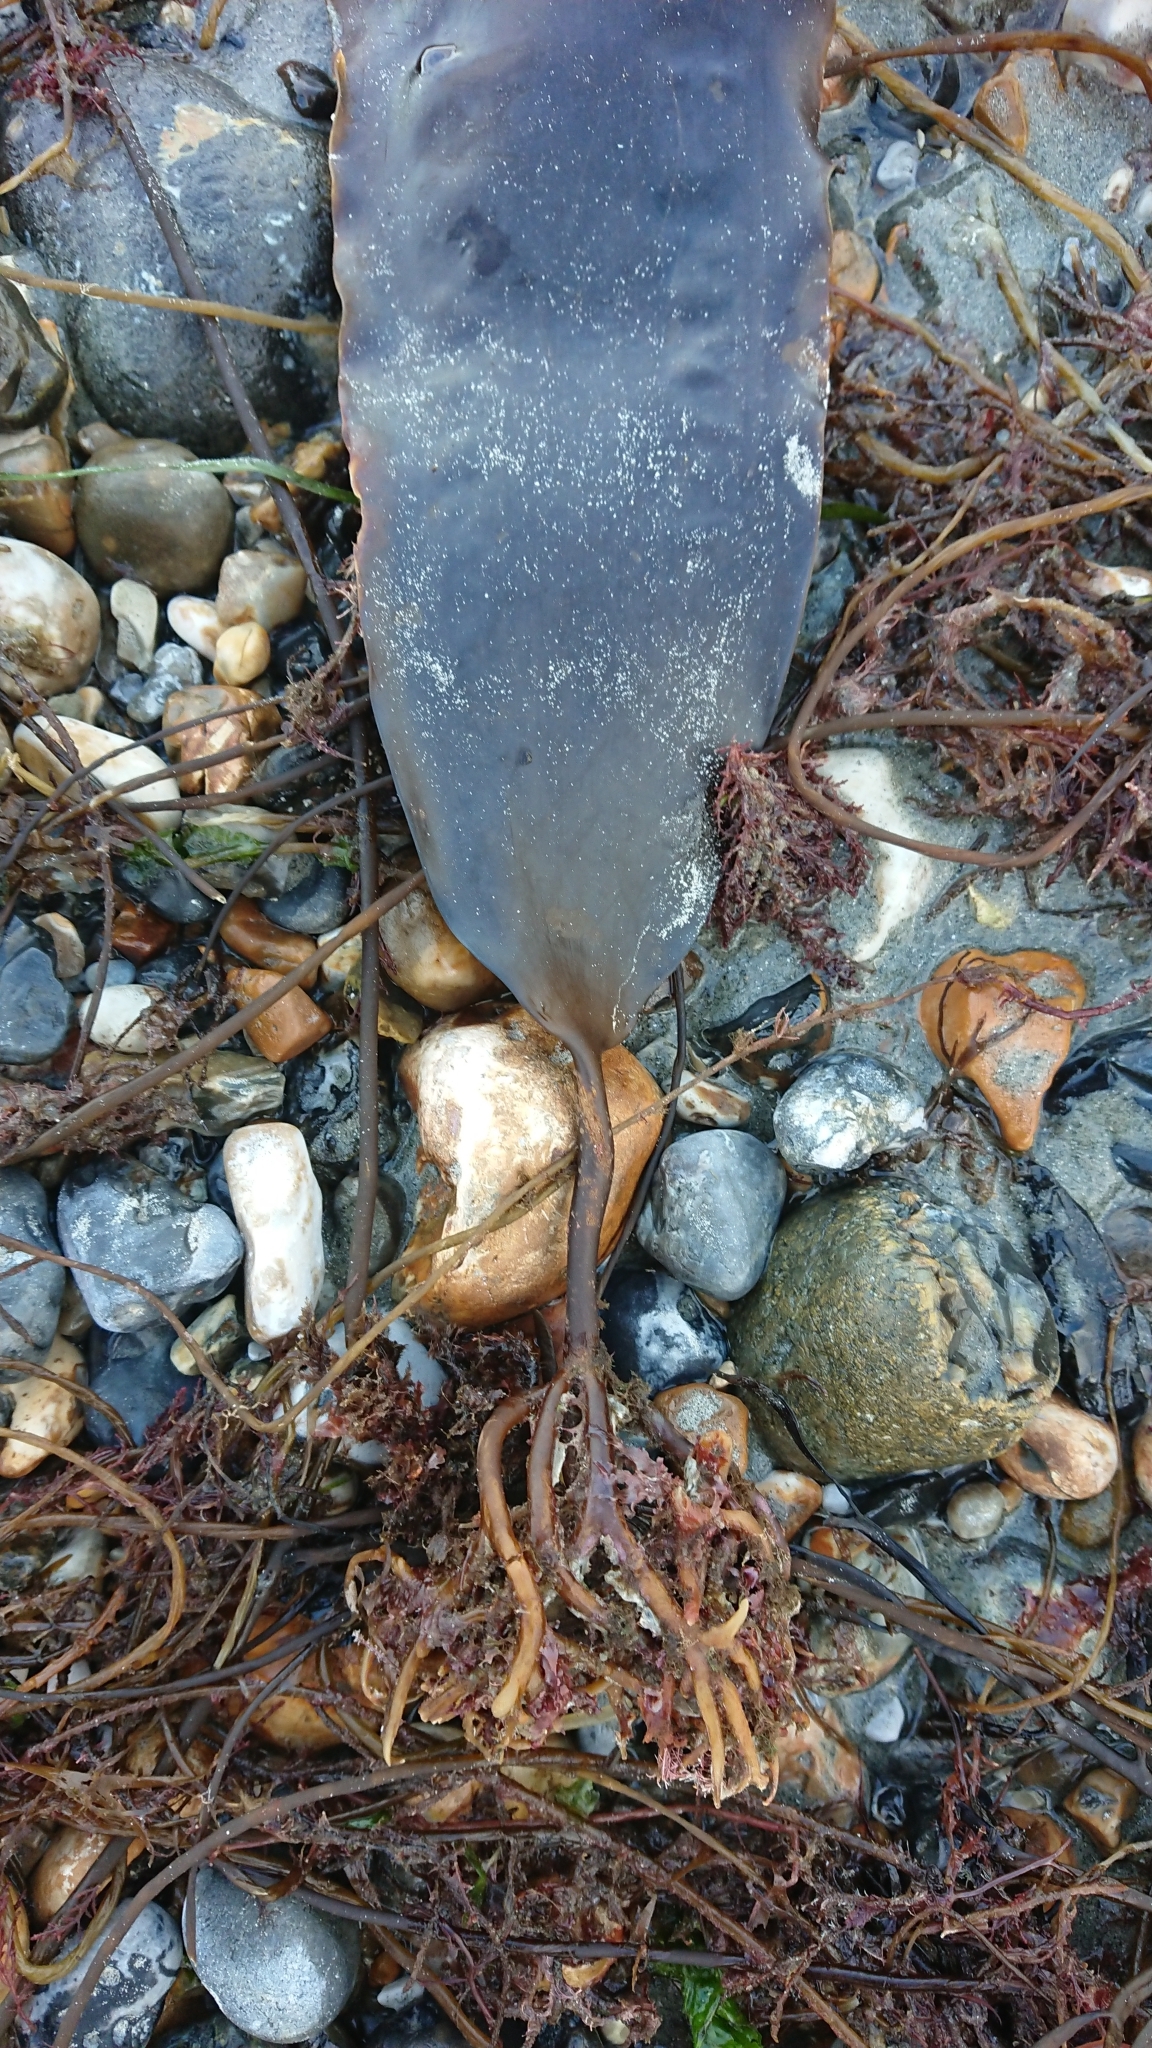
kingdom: Chromista
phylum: Ochrophyta
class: Phaeophyceae
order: Laminariales
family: Laminariaceae
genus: Saccharina
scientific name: Saccharina latissima
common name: Poor man's weather glass
